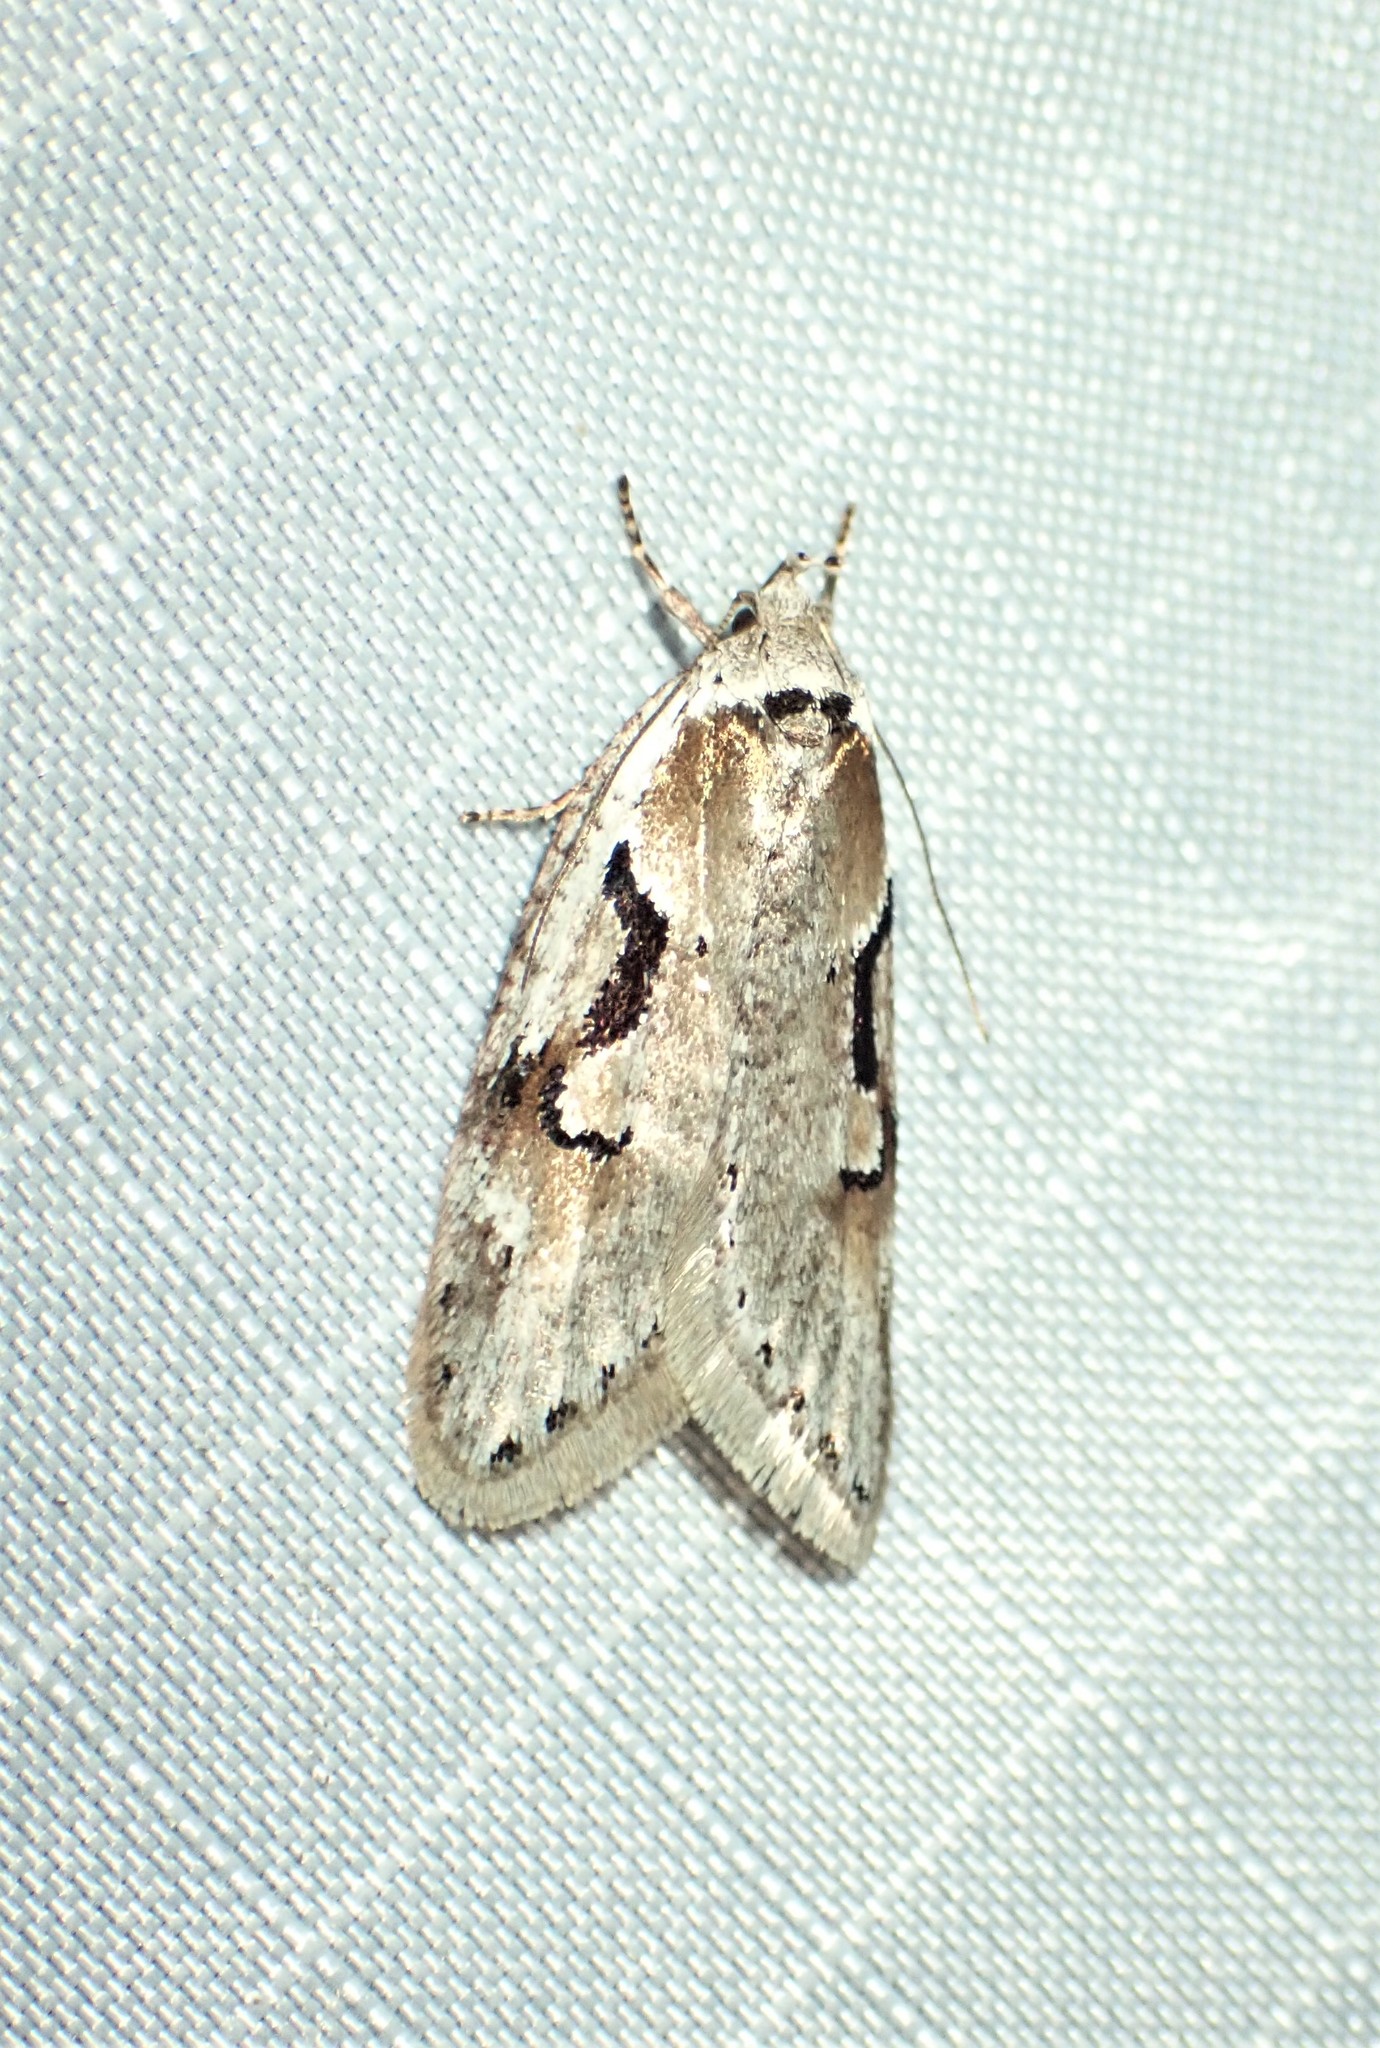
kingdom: Animalia
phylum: Arthropoda
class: Insecta
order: Lepidoptera
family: Depressariidae
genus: Semioscopis
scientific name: Semioscopis merriccella
